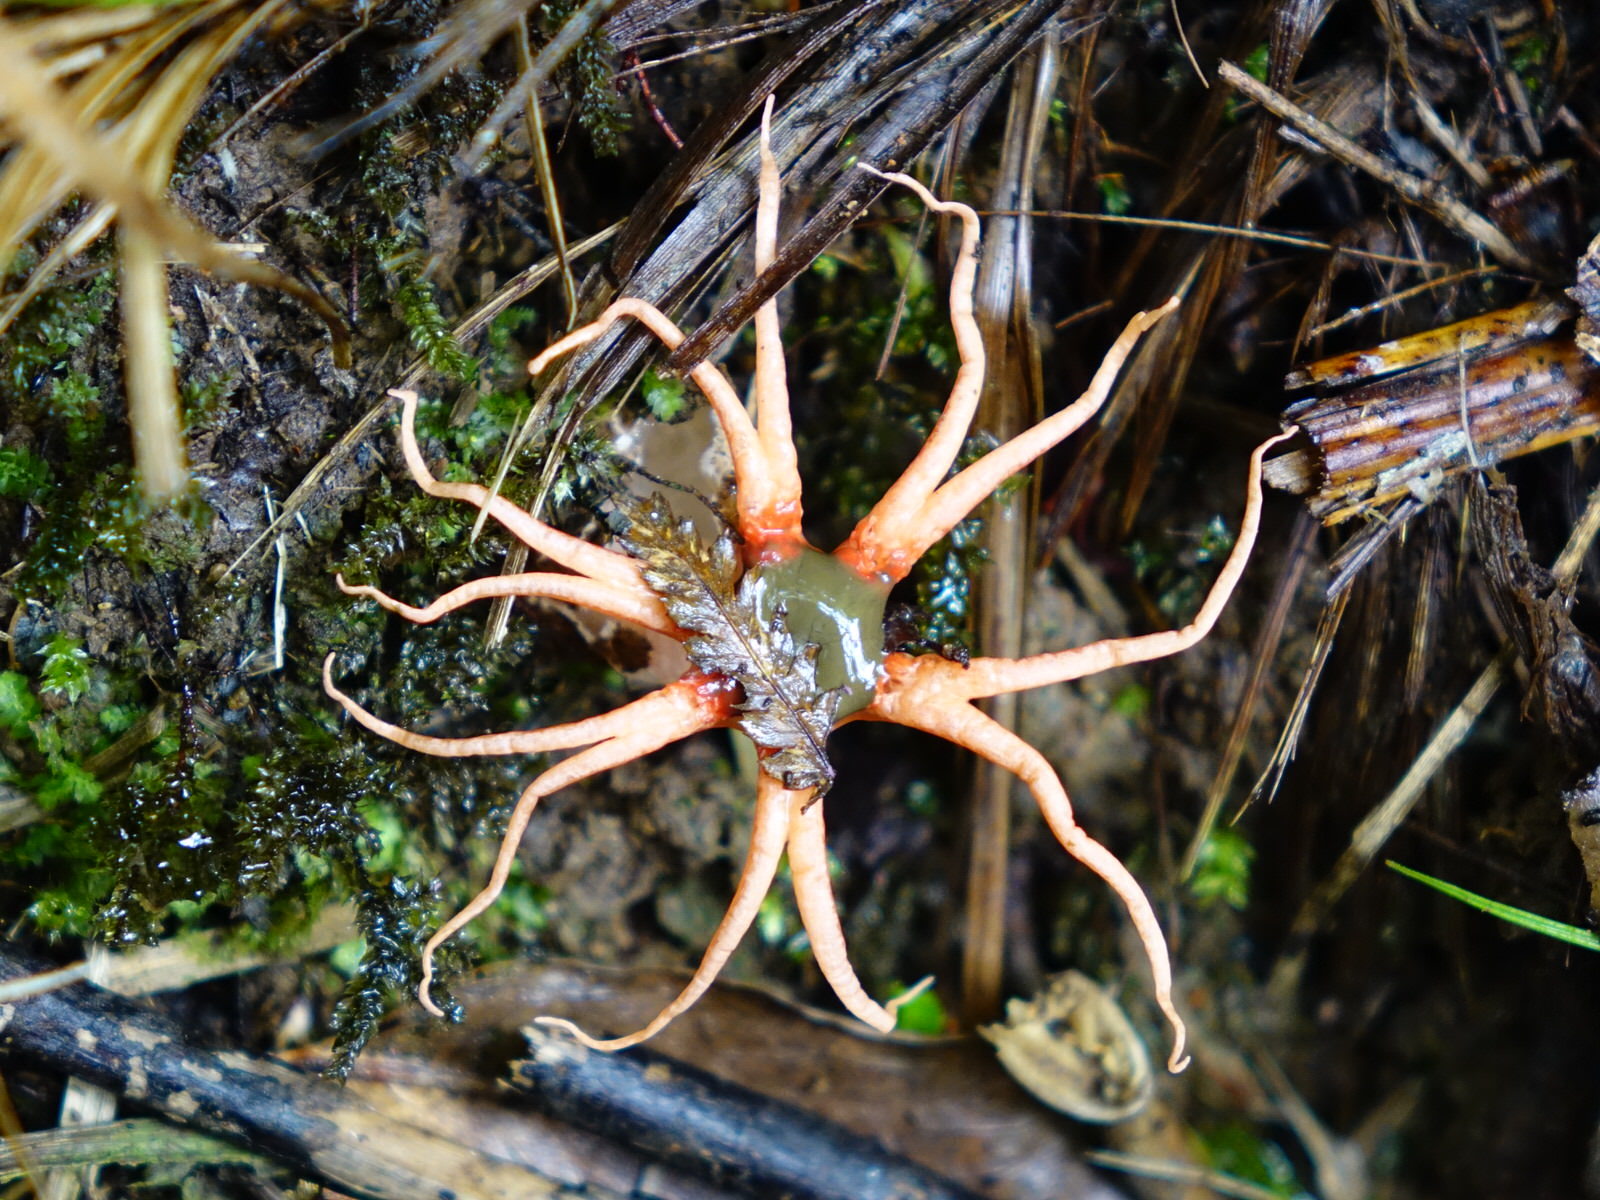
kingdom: Fungi
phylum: Basidiomycota
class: Agaricomycetes
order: Phallales
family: Phallaceae
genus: Aseroe
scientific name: Aseroe rubra
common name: Starfish fungus
